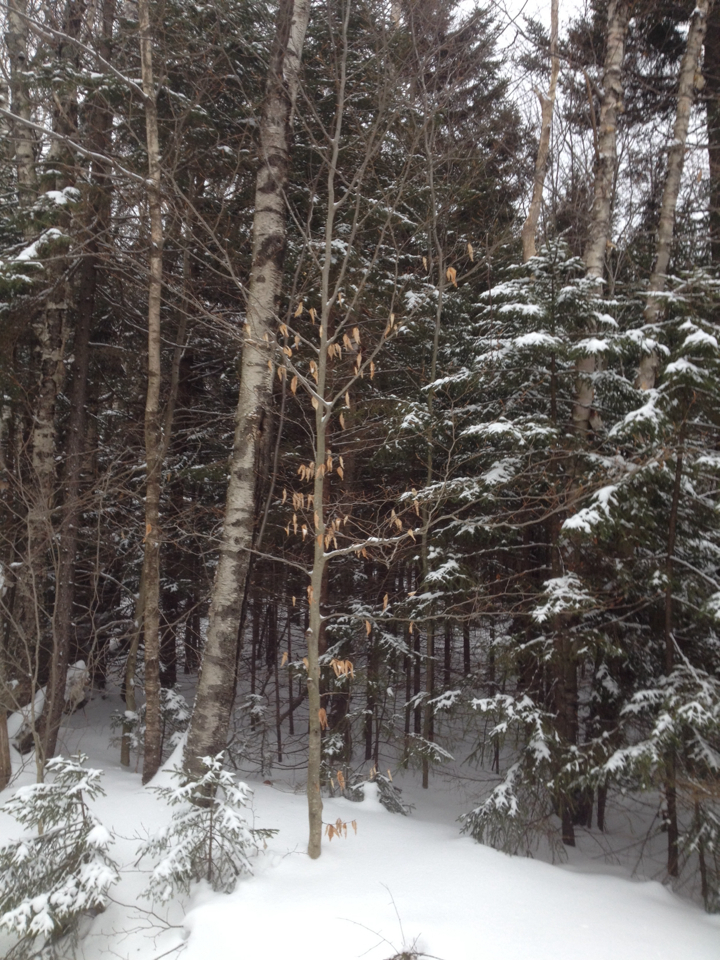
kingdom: Plantae
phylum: Tracheophyta
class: Magnoliopsida
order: Fagales
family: Fagaceae
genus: Fagus
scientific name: Fagus grandifolia
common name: American beech
